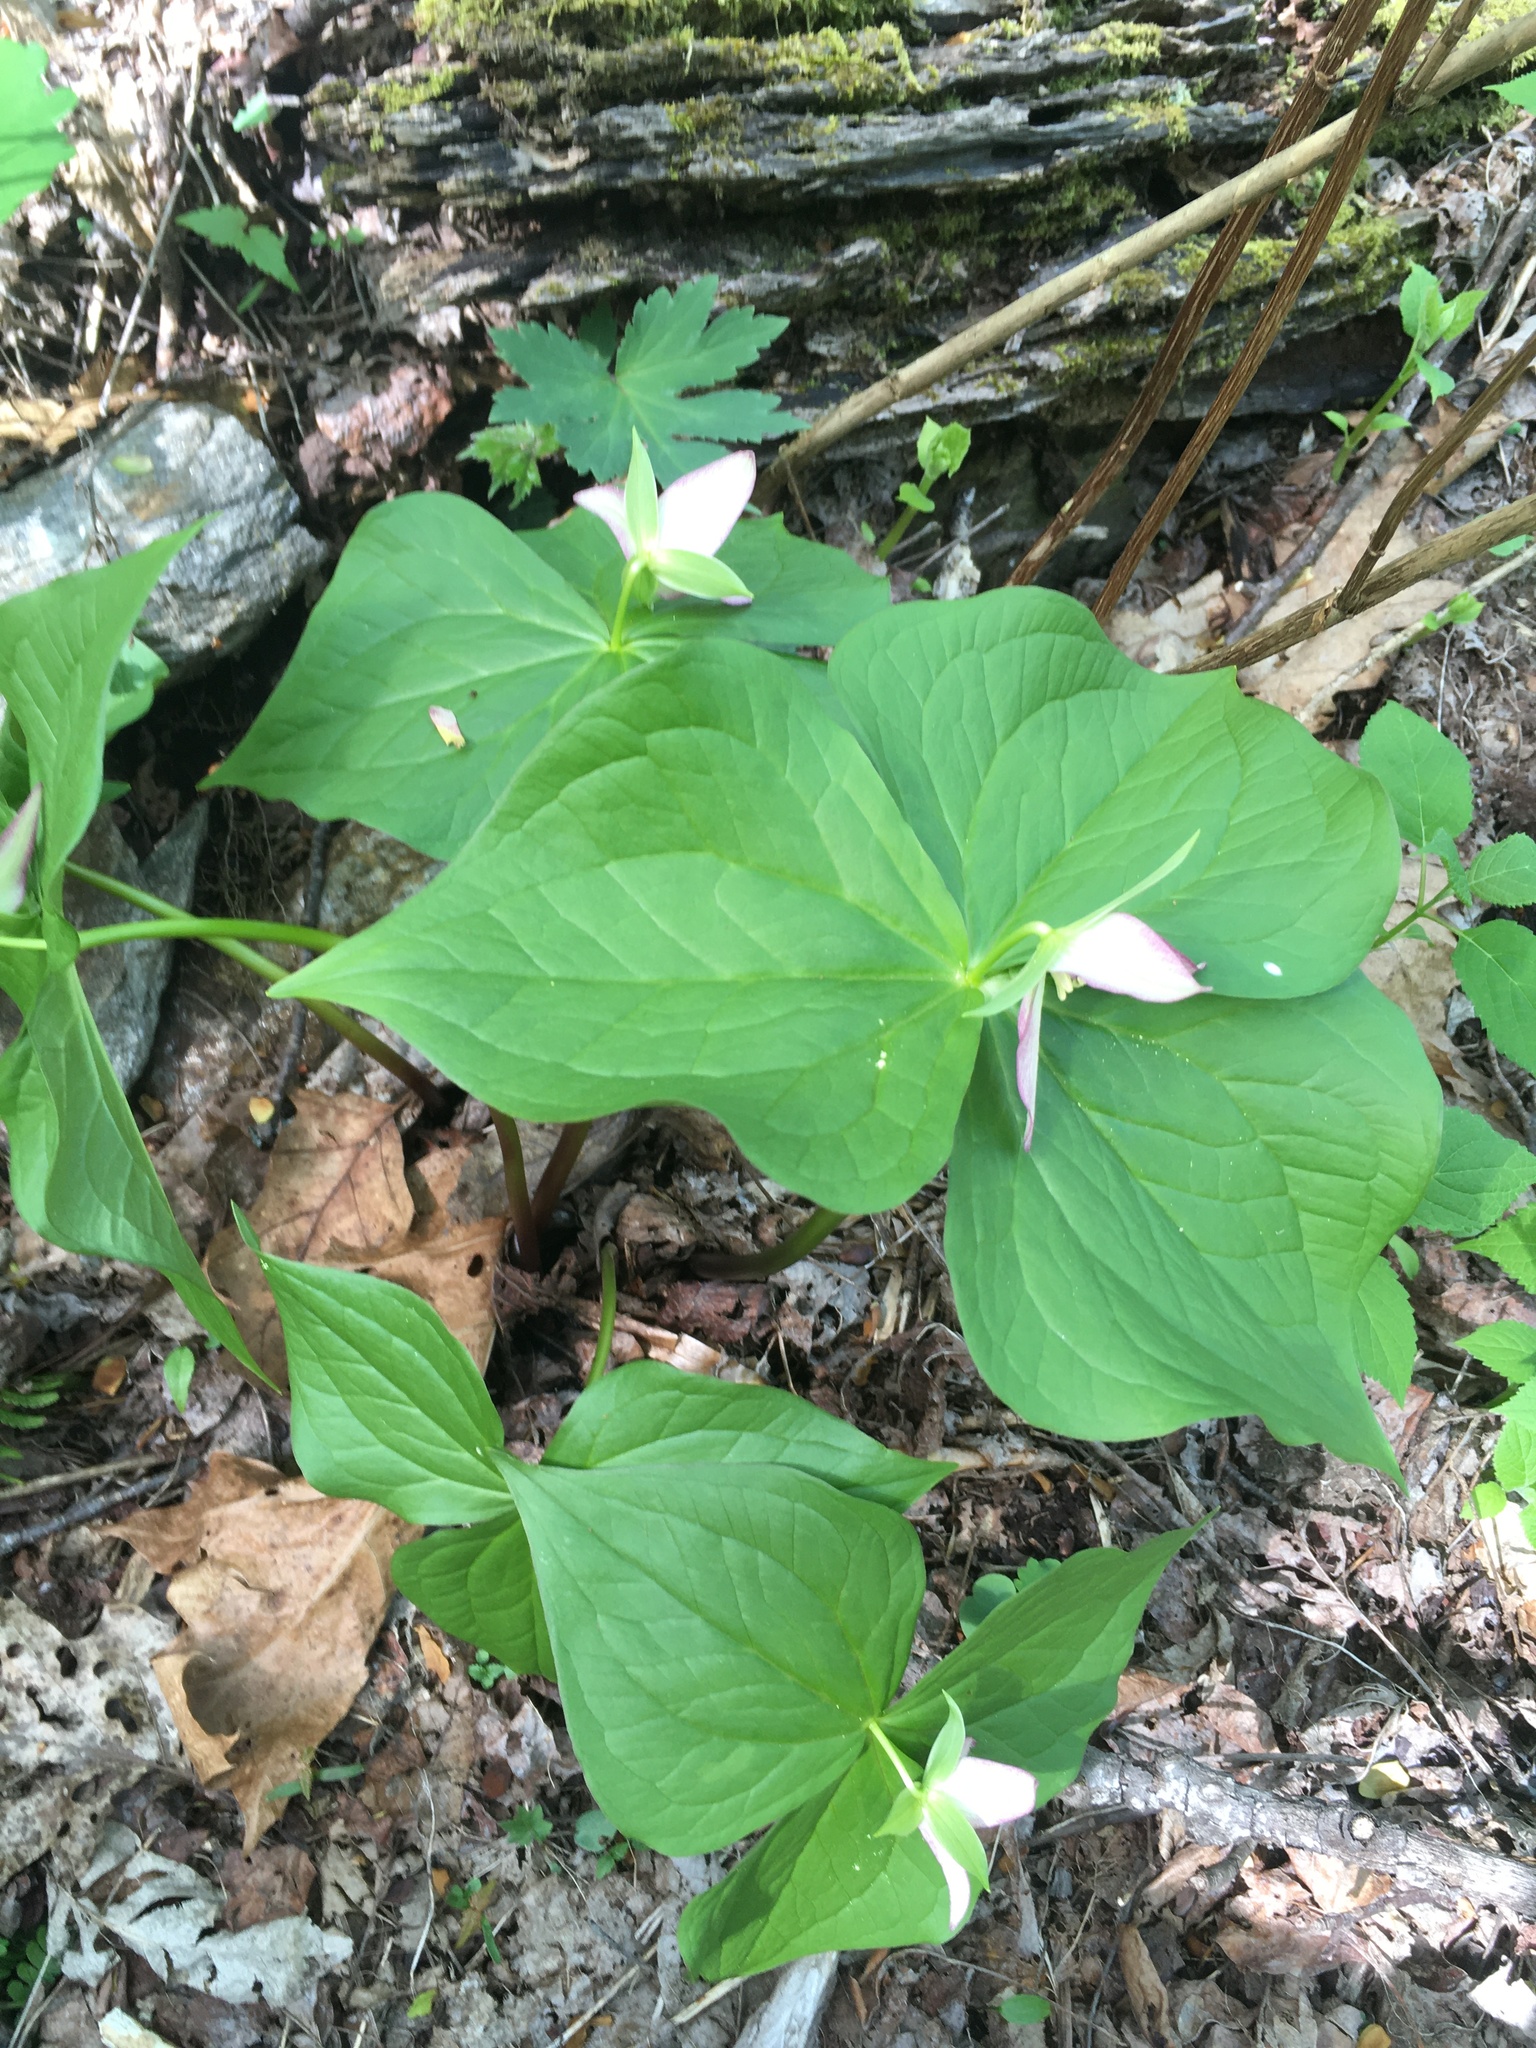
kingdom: Plantae
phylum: Tracheophyta
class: Liliopsida
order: Liliales
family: Melanthiaceae
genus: Trillium
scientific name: Trillium erectum
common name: Purple trillium
